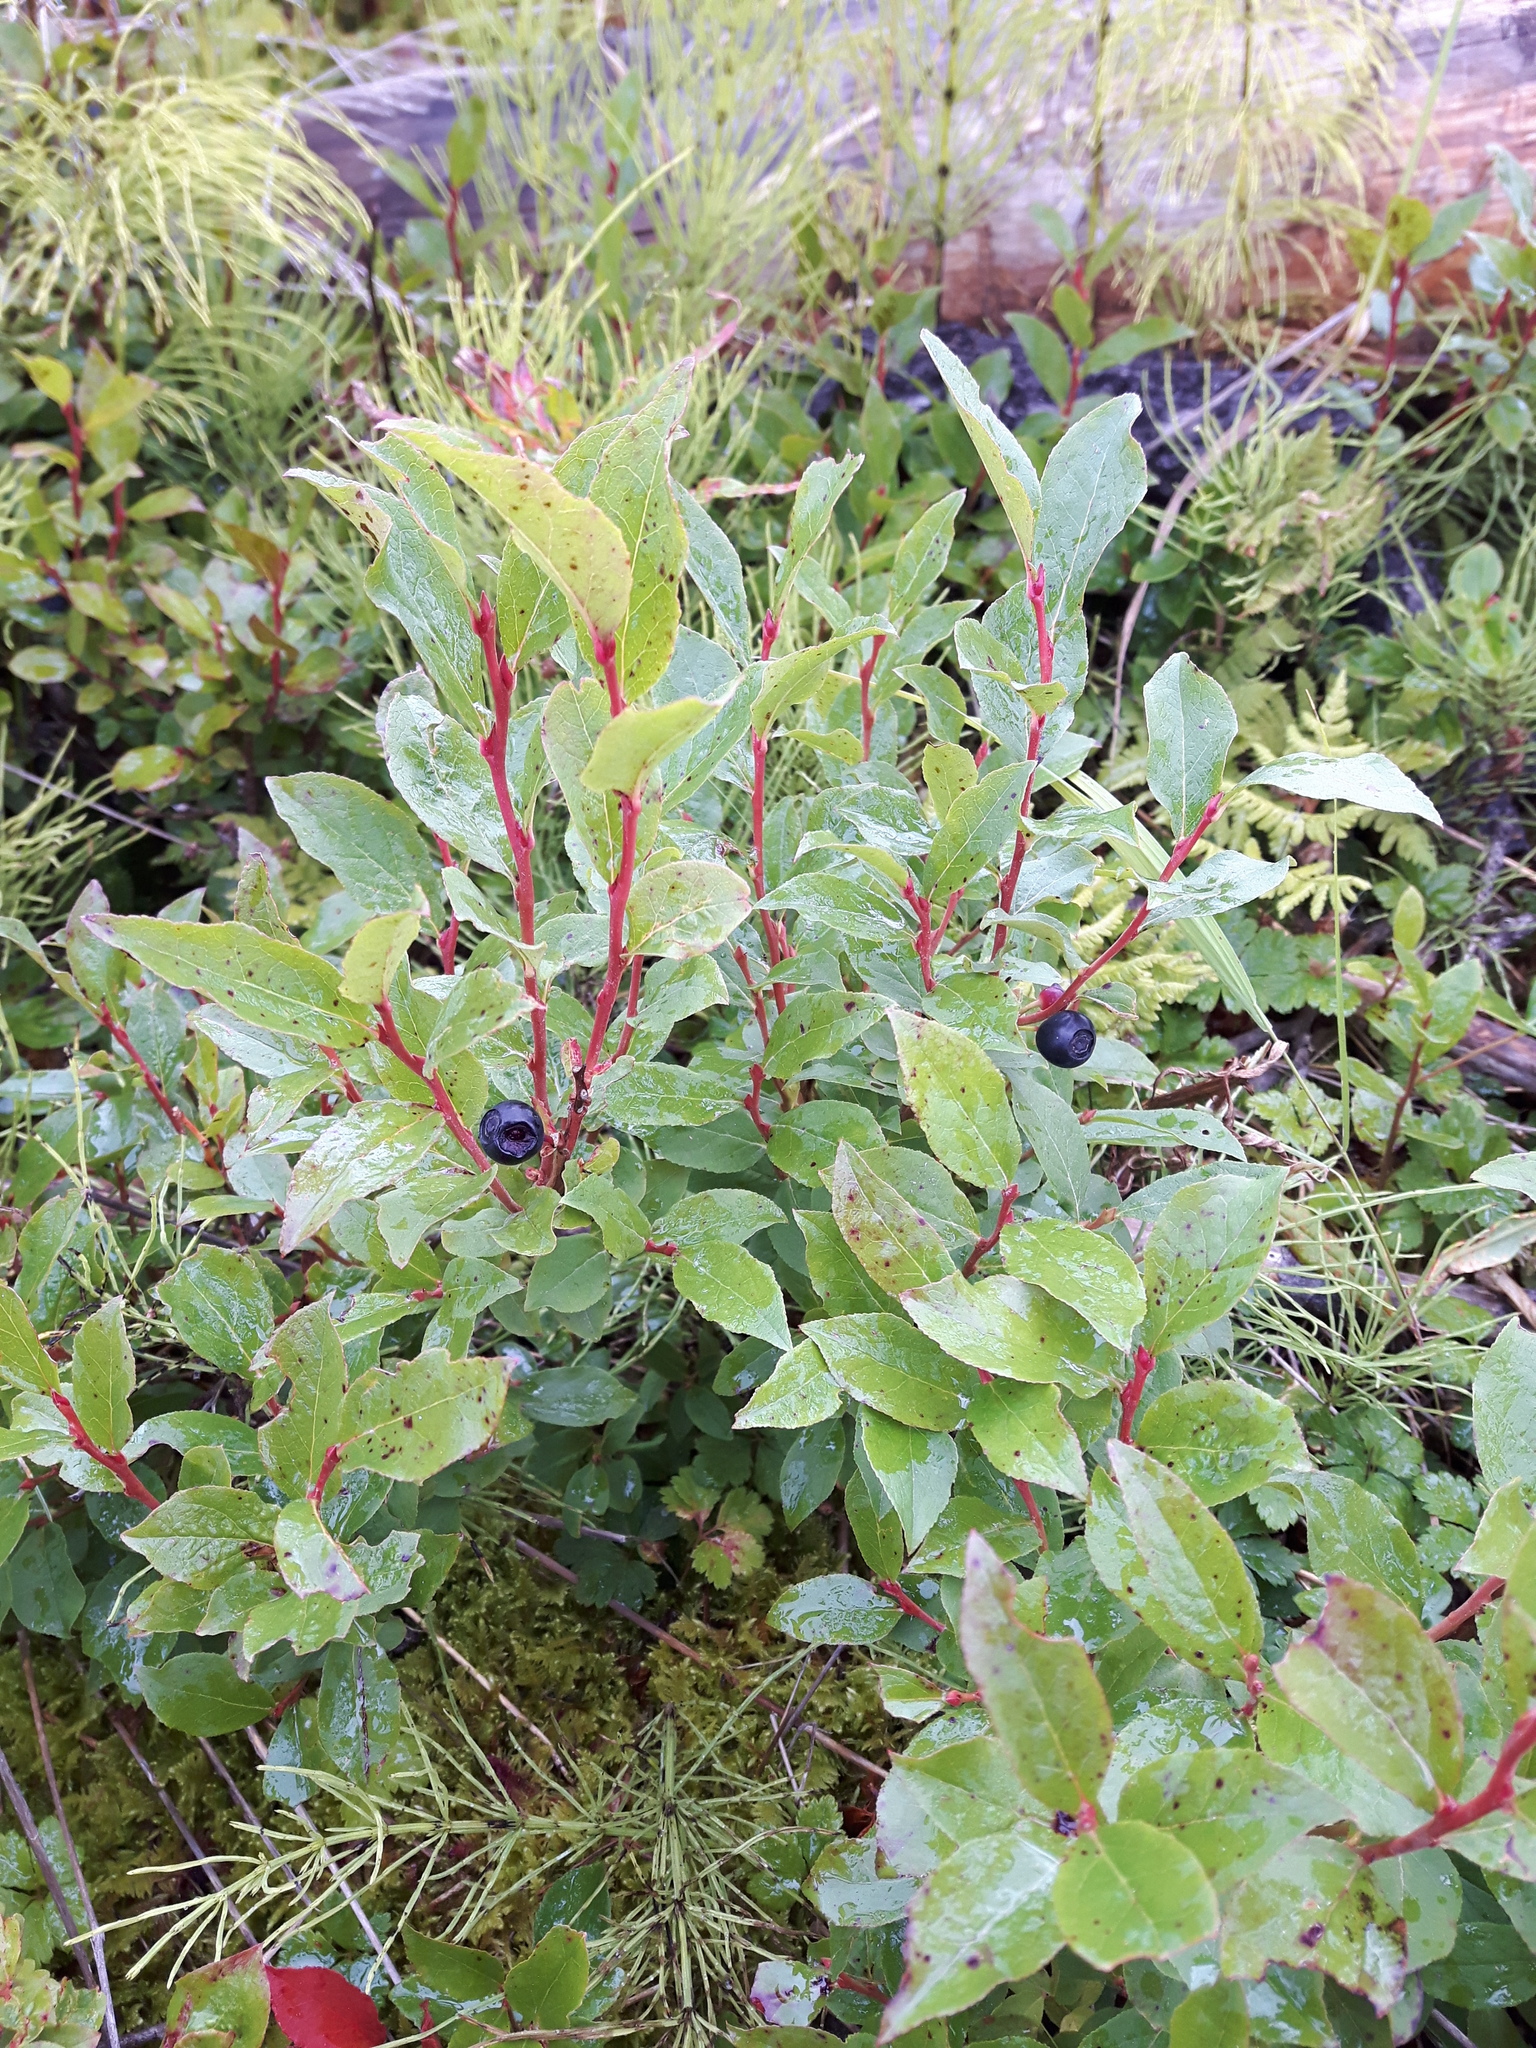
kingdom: Plantae
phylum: Tracheophyta
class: Magnoliopsida
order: Ericales
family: Ericaceae
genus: Vaccinium
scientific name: Vaccinium membranaceum
